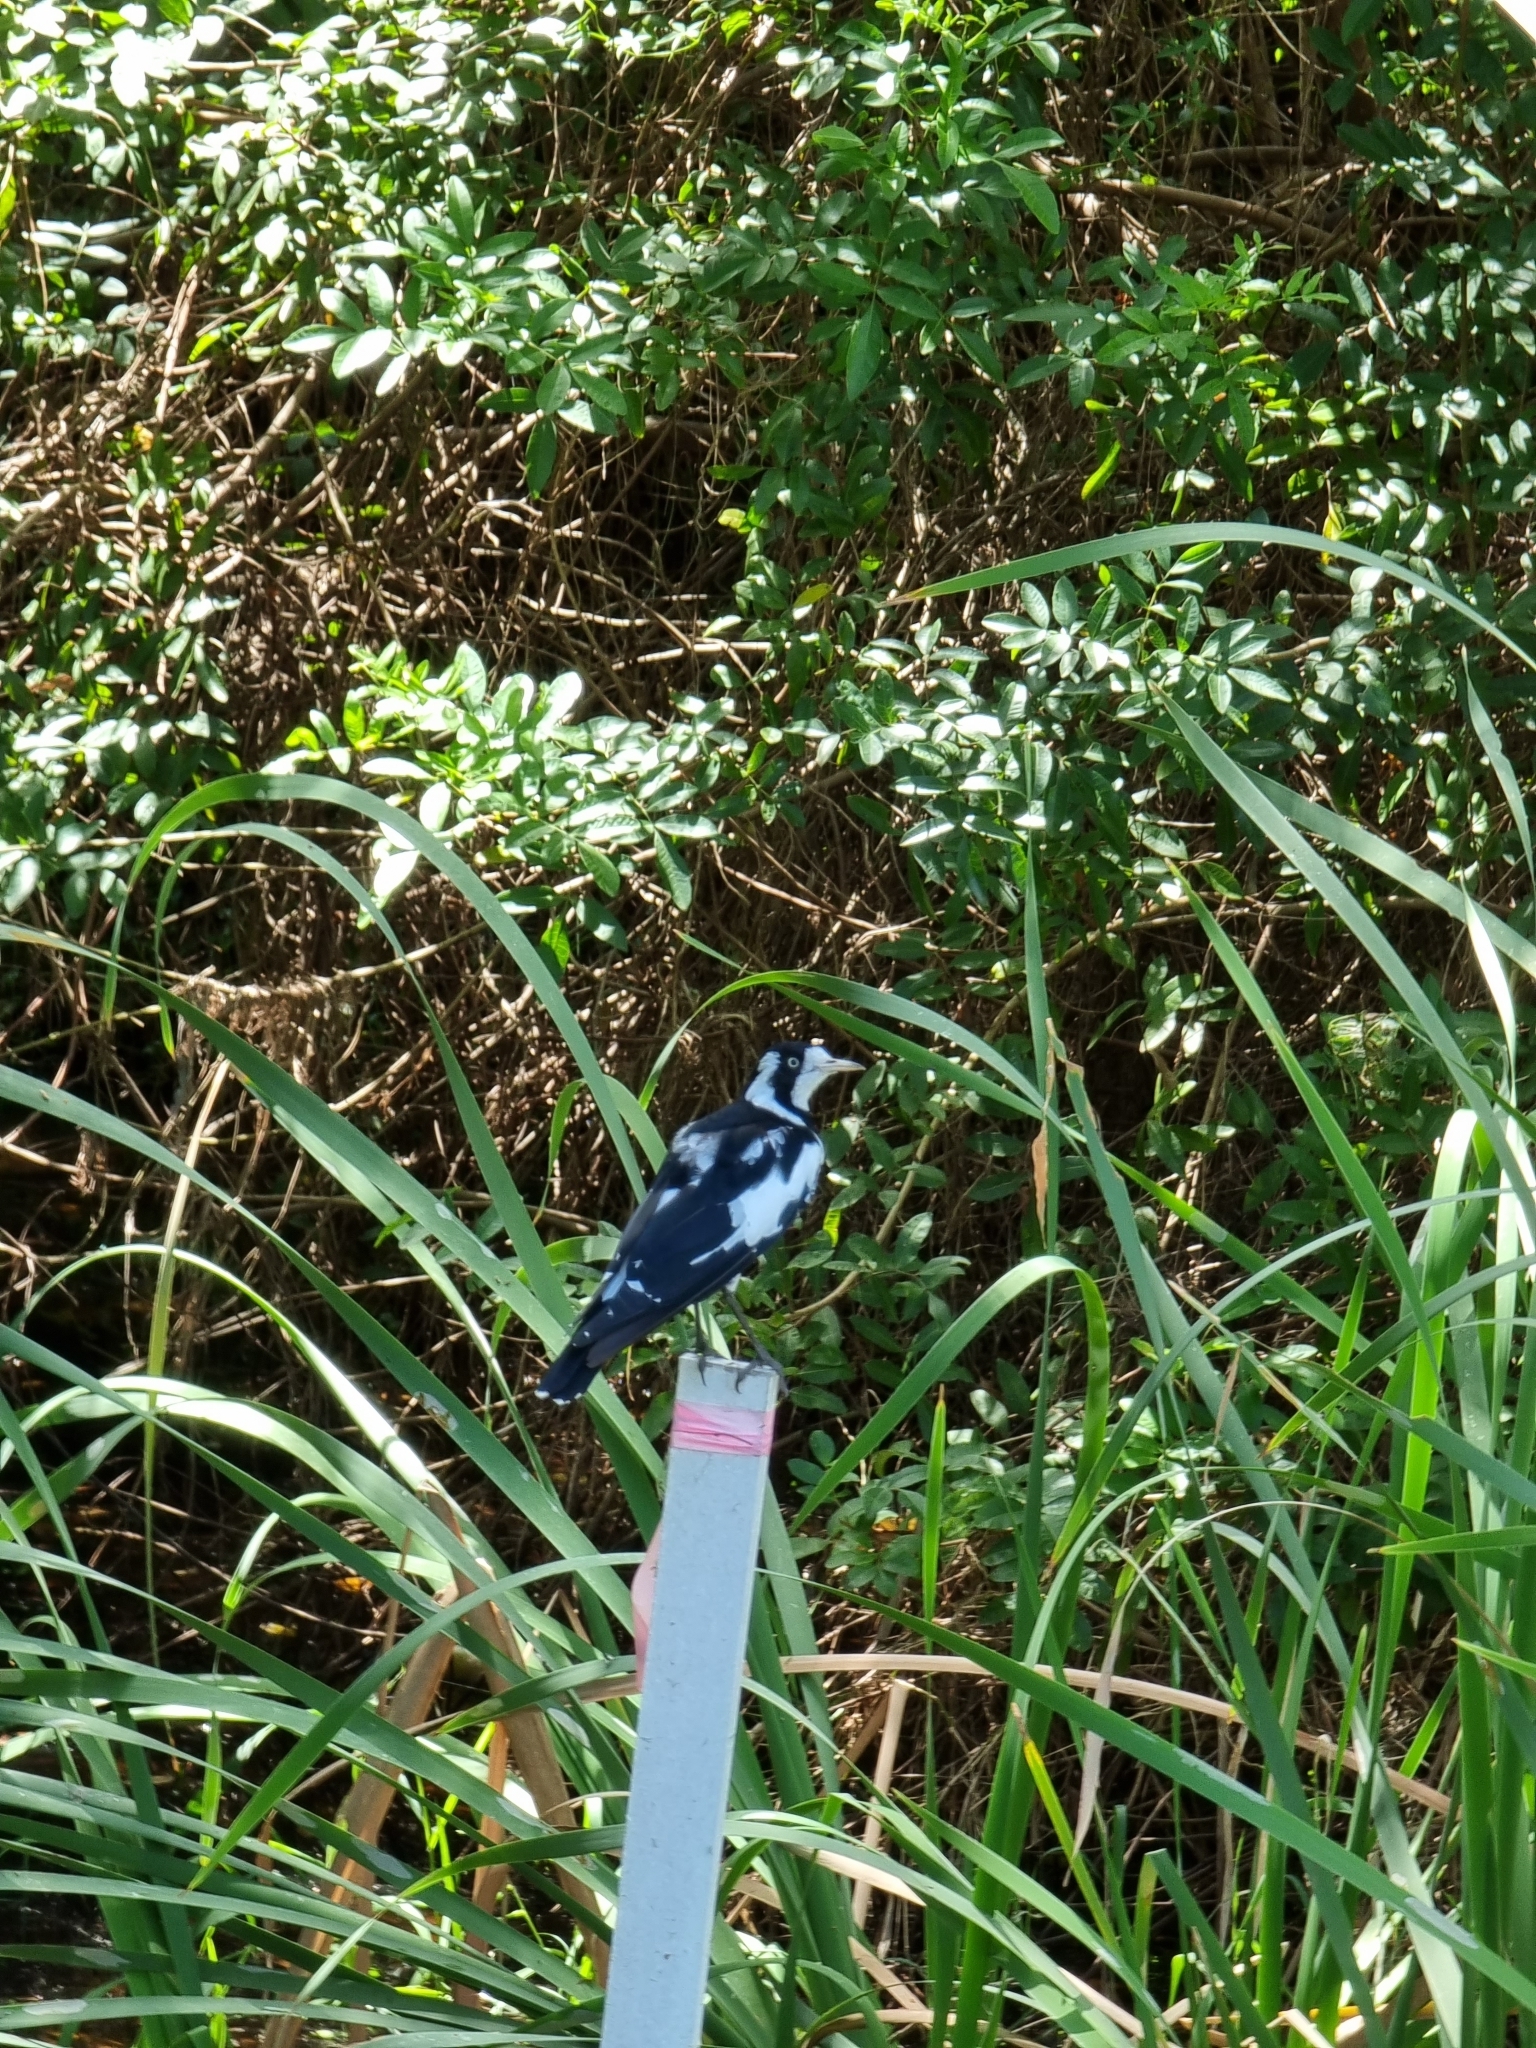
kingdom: Animalia
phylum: Chordata
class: Aves
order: Passeriformes
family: Monarchidae
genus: Grallina
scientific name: Grallina cyanoleuca
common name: Magpie-lark
